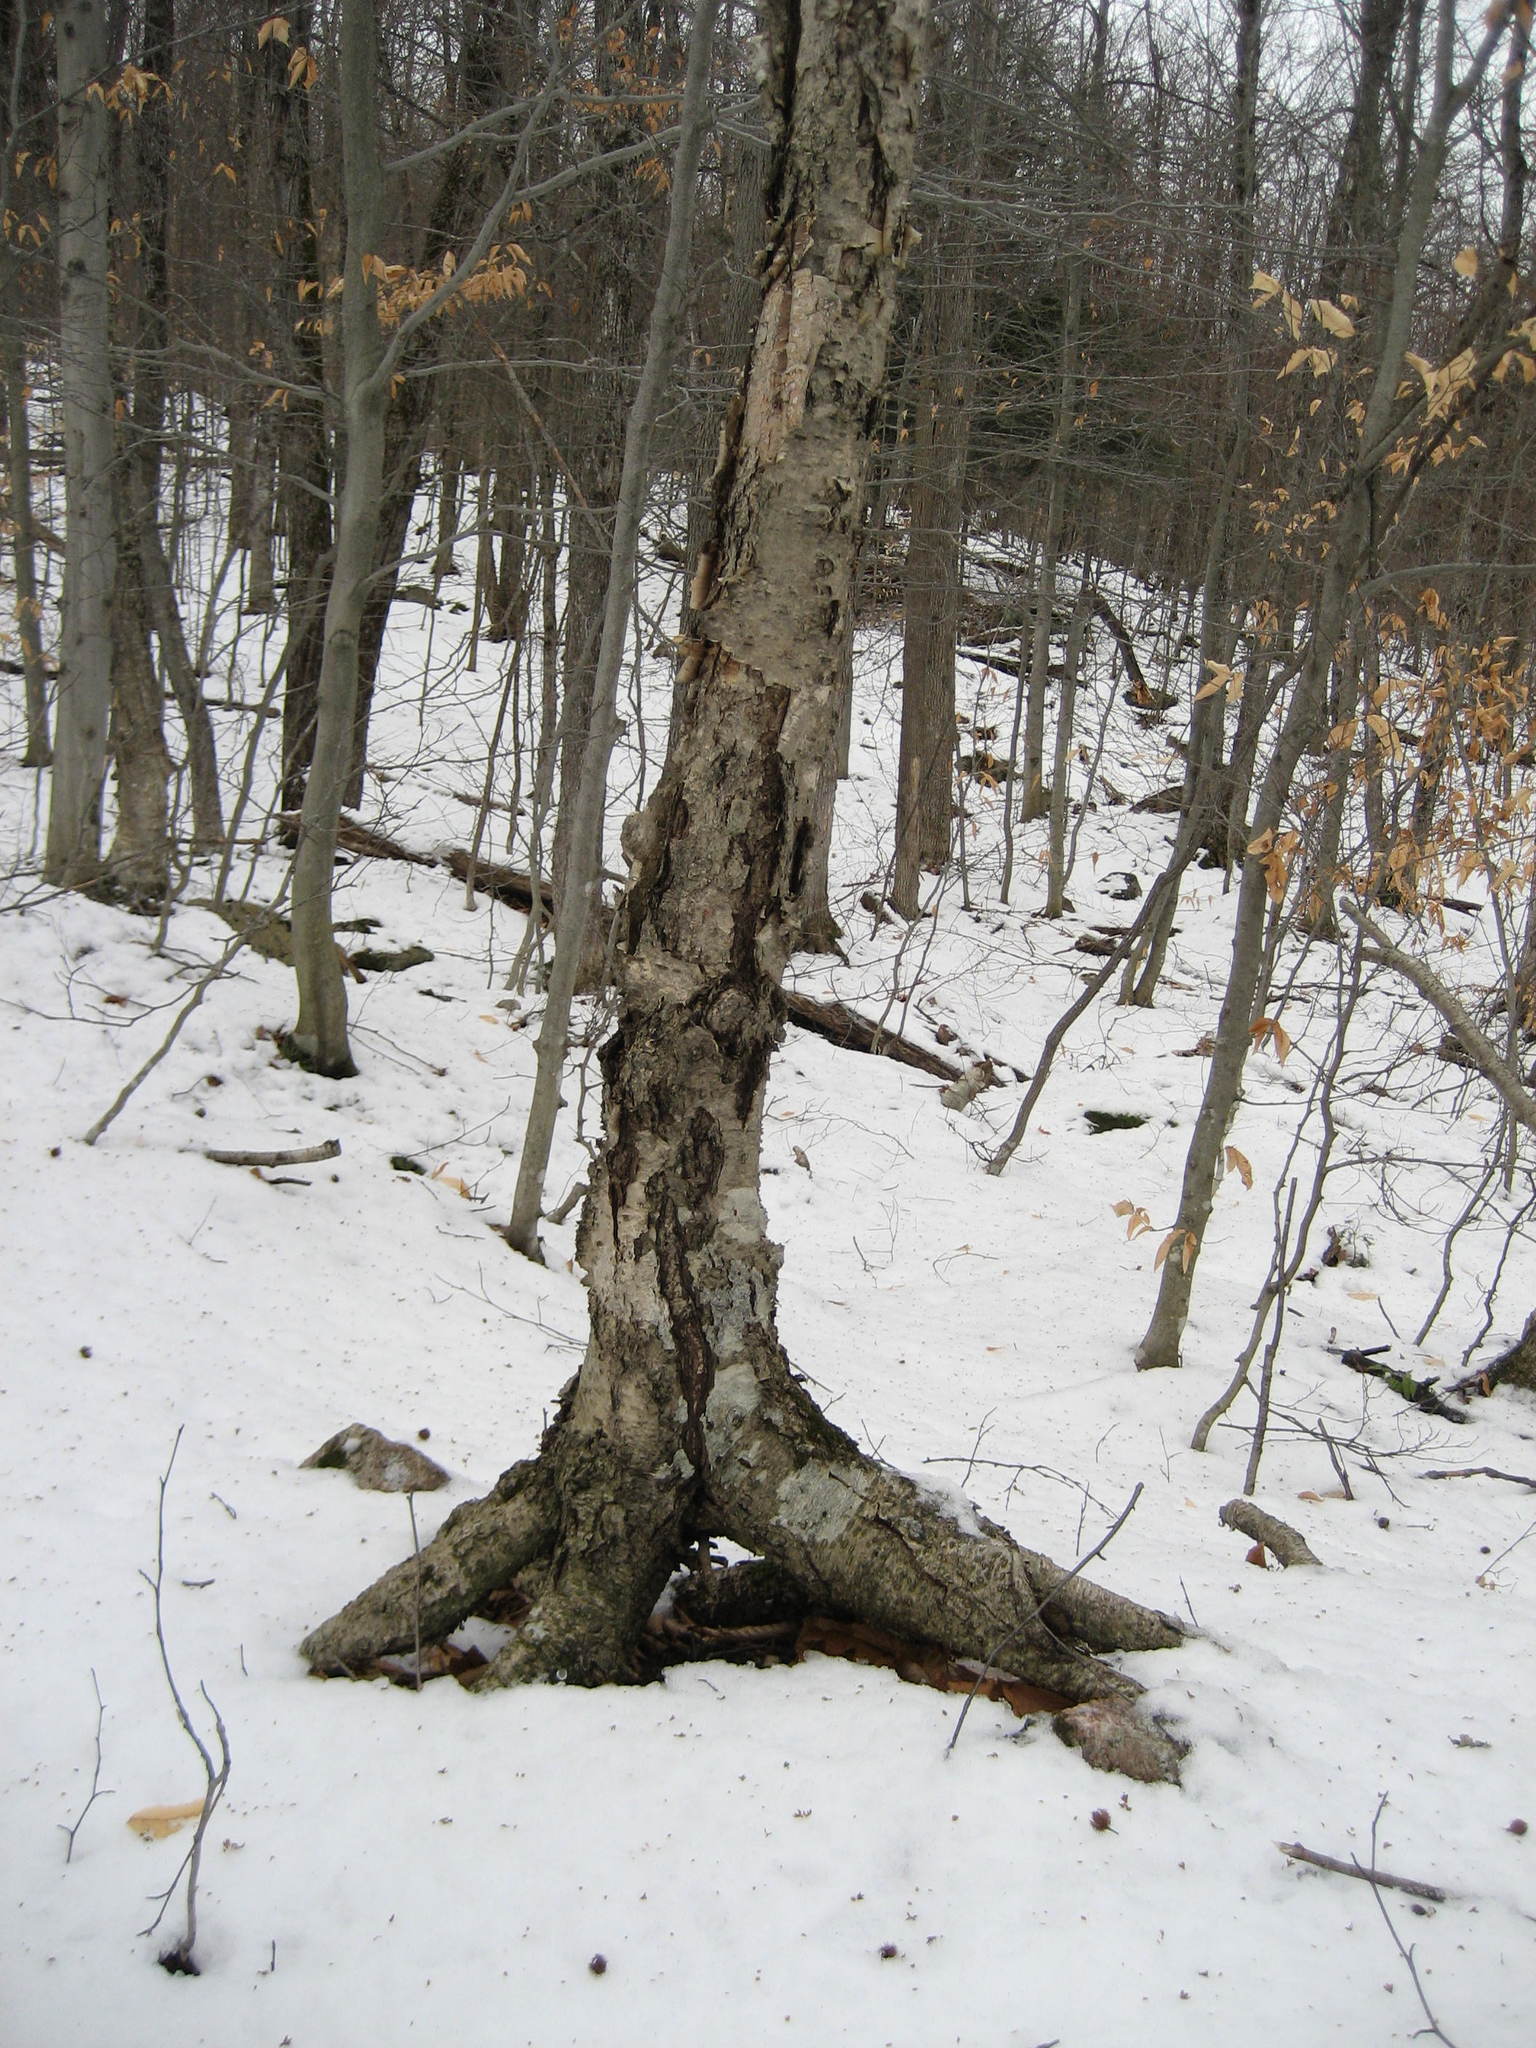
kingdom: Plantae
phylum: Tracheophyta
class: Magnoliopsida
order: Fagales
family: Betulaceae
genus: Betula
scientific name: Betula alleghaniensis
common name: Yellow birch
